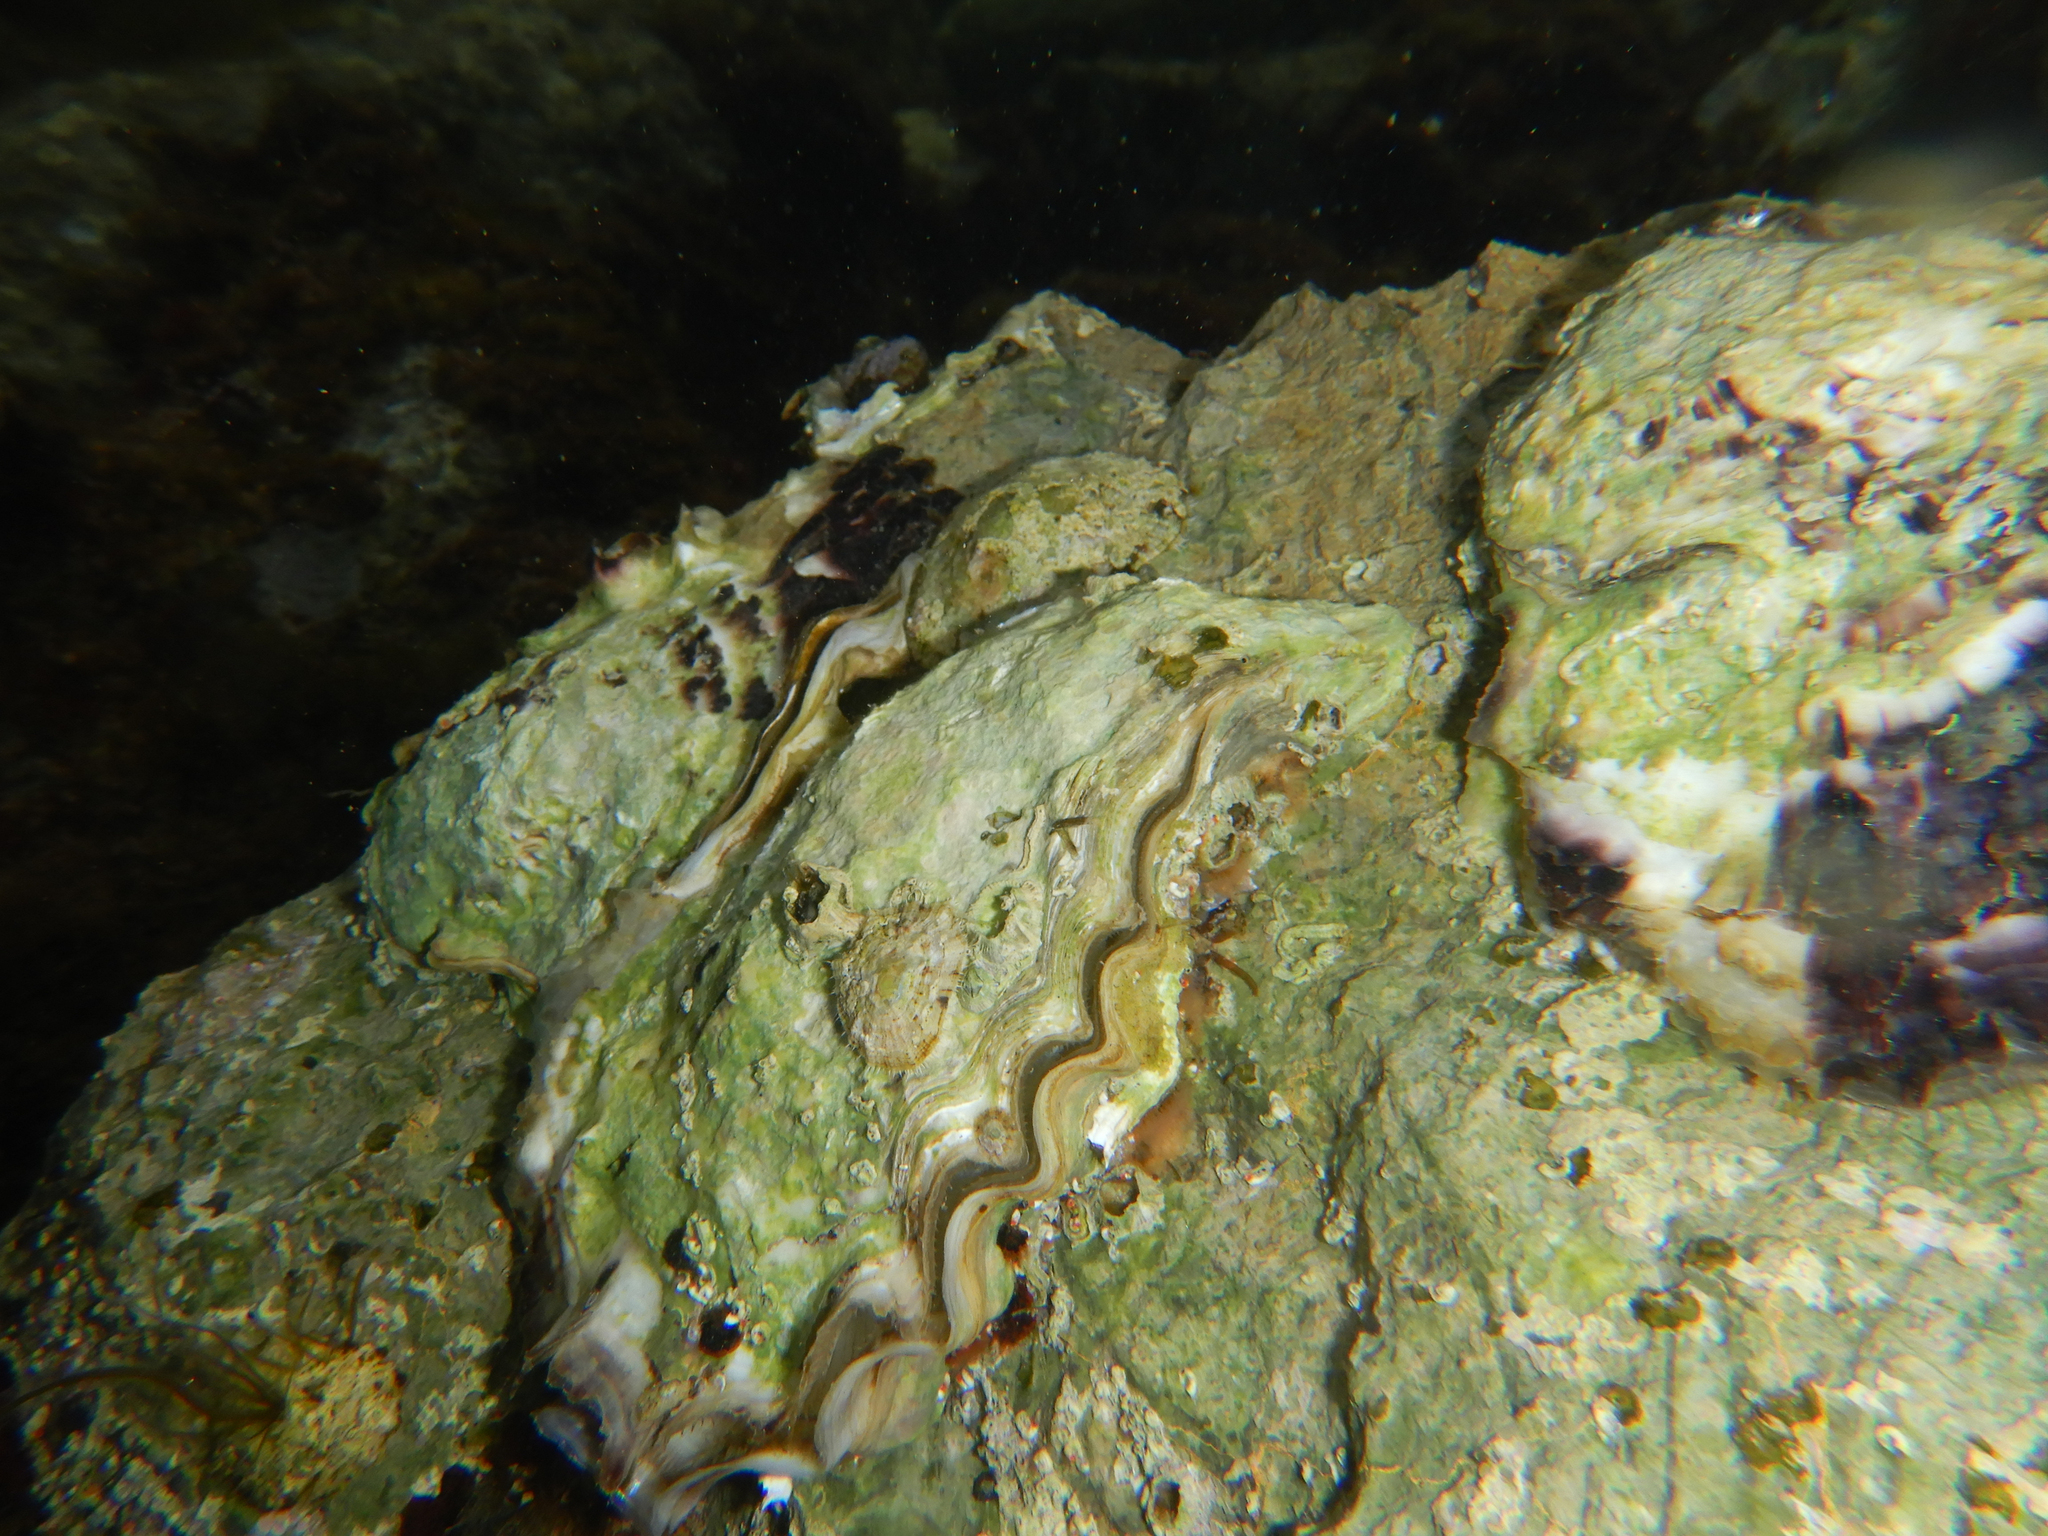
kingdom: Animalia
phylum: Mollusca
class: Bivalvia
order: Ostreida
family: Ostreidae
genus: Magallana
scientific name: Magallana gigas
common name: Pacific oyster
